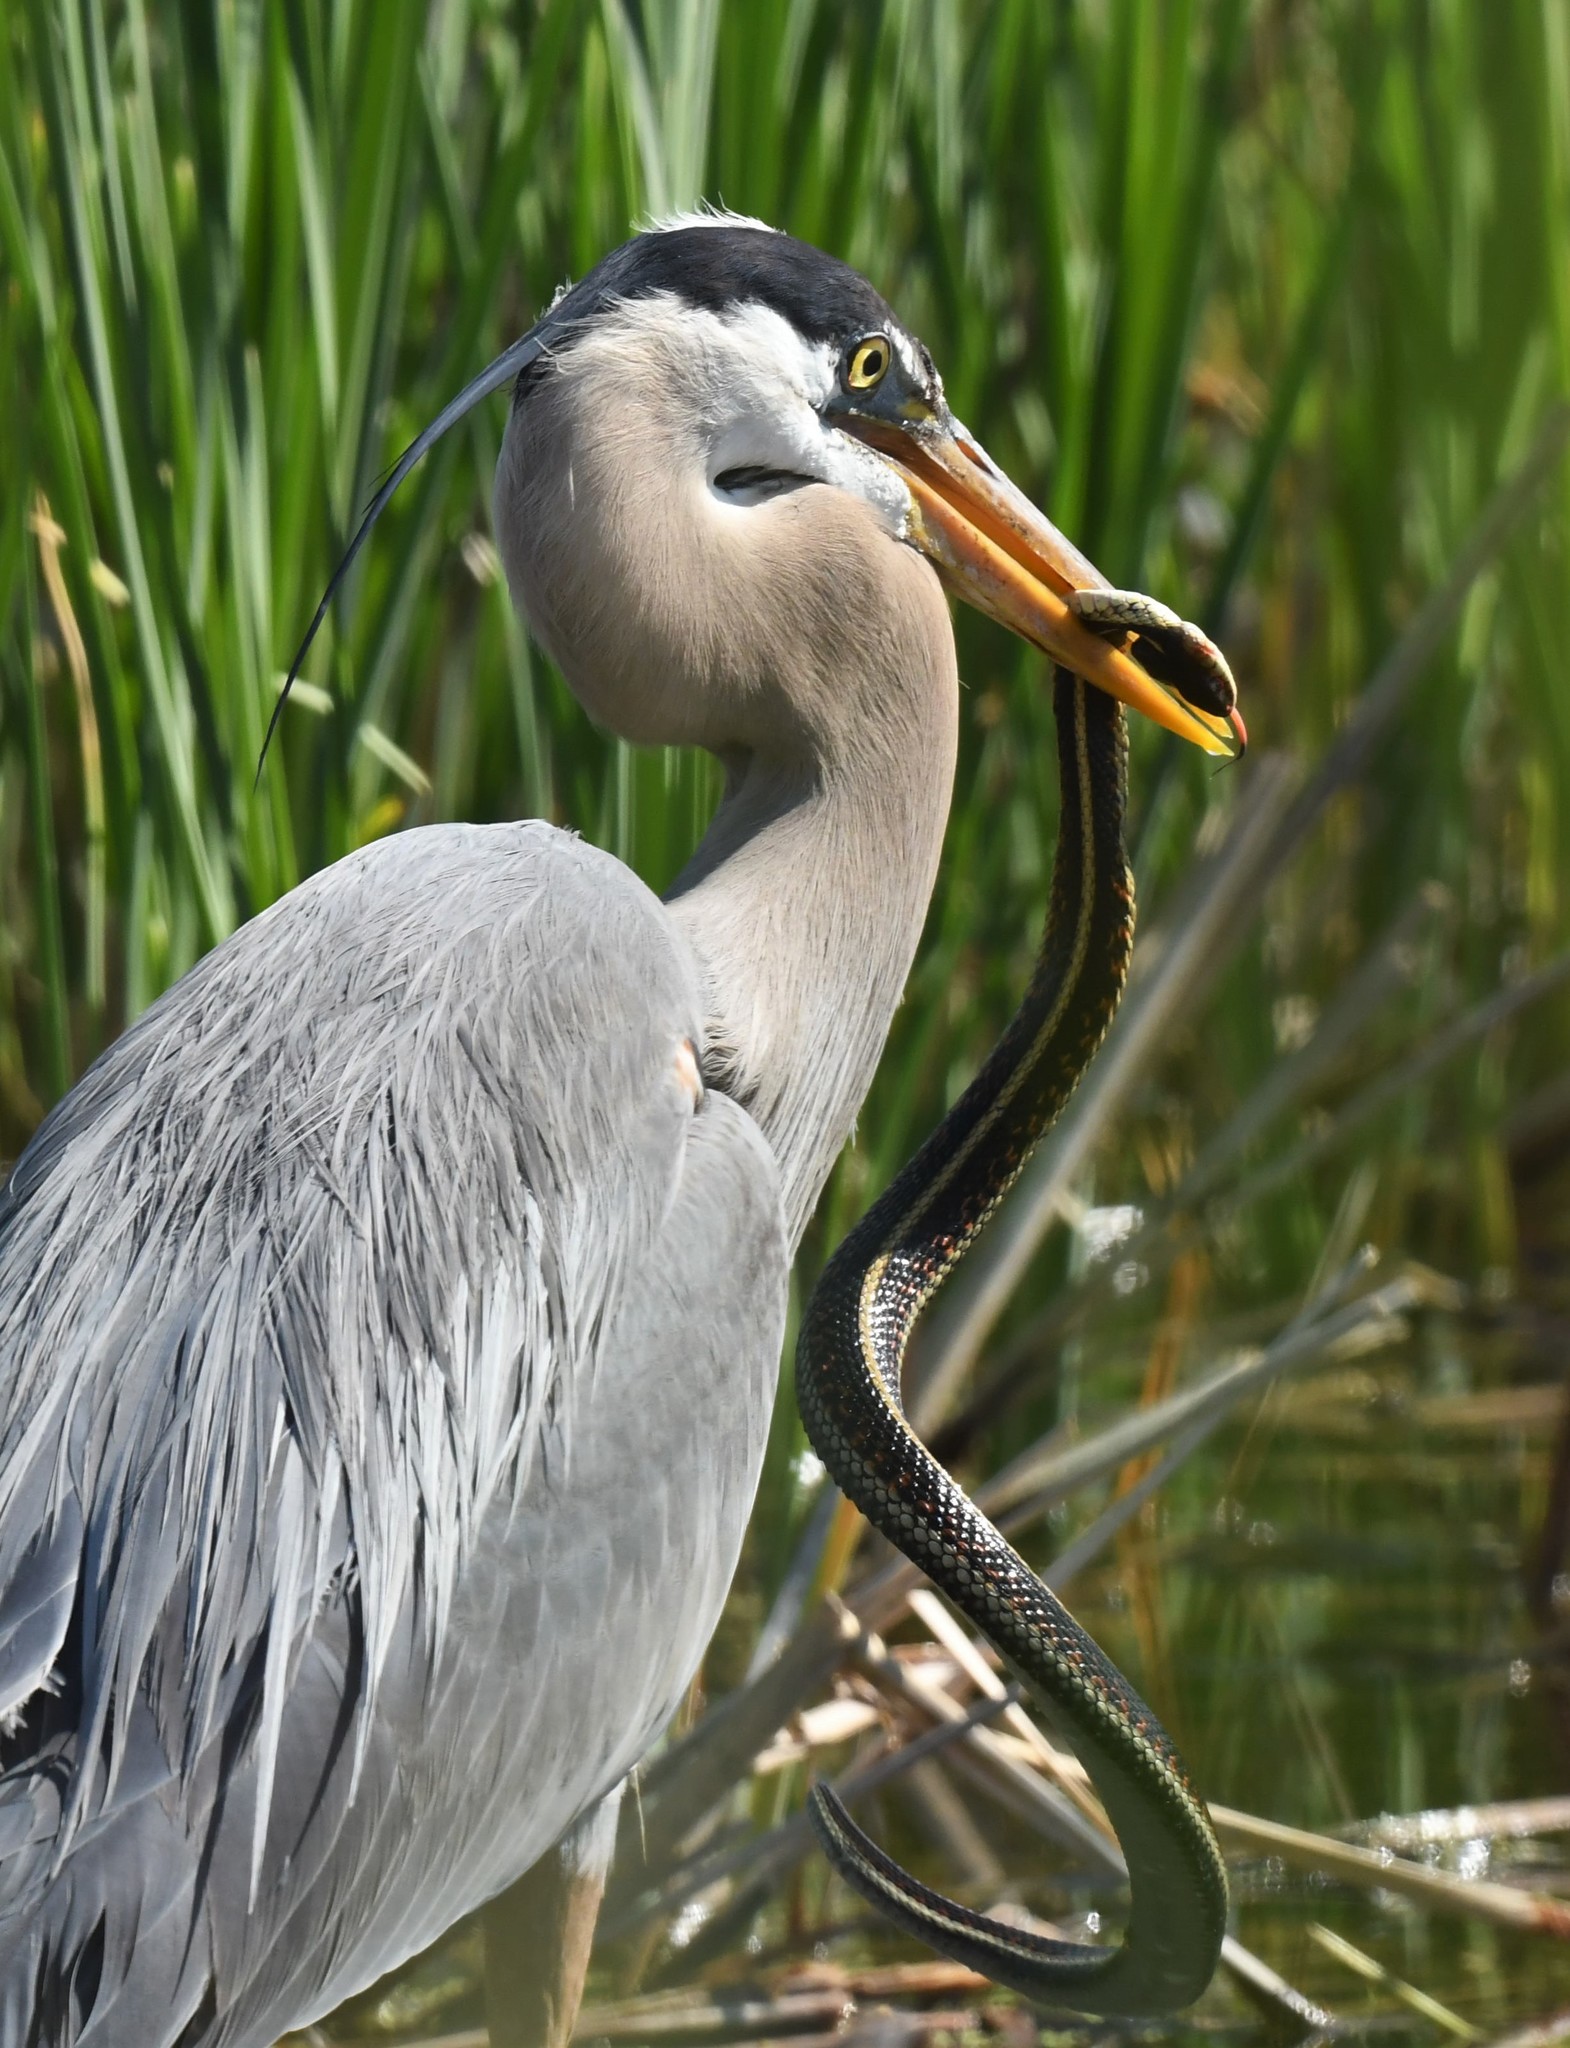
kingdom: Animalia
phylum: Chordata
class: Aves
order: Passeriformes
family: Passerellidae
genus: Pipilo
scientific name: Pipilo chlorurus
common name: Green-tailed towhee
